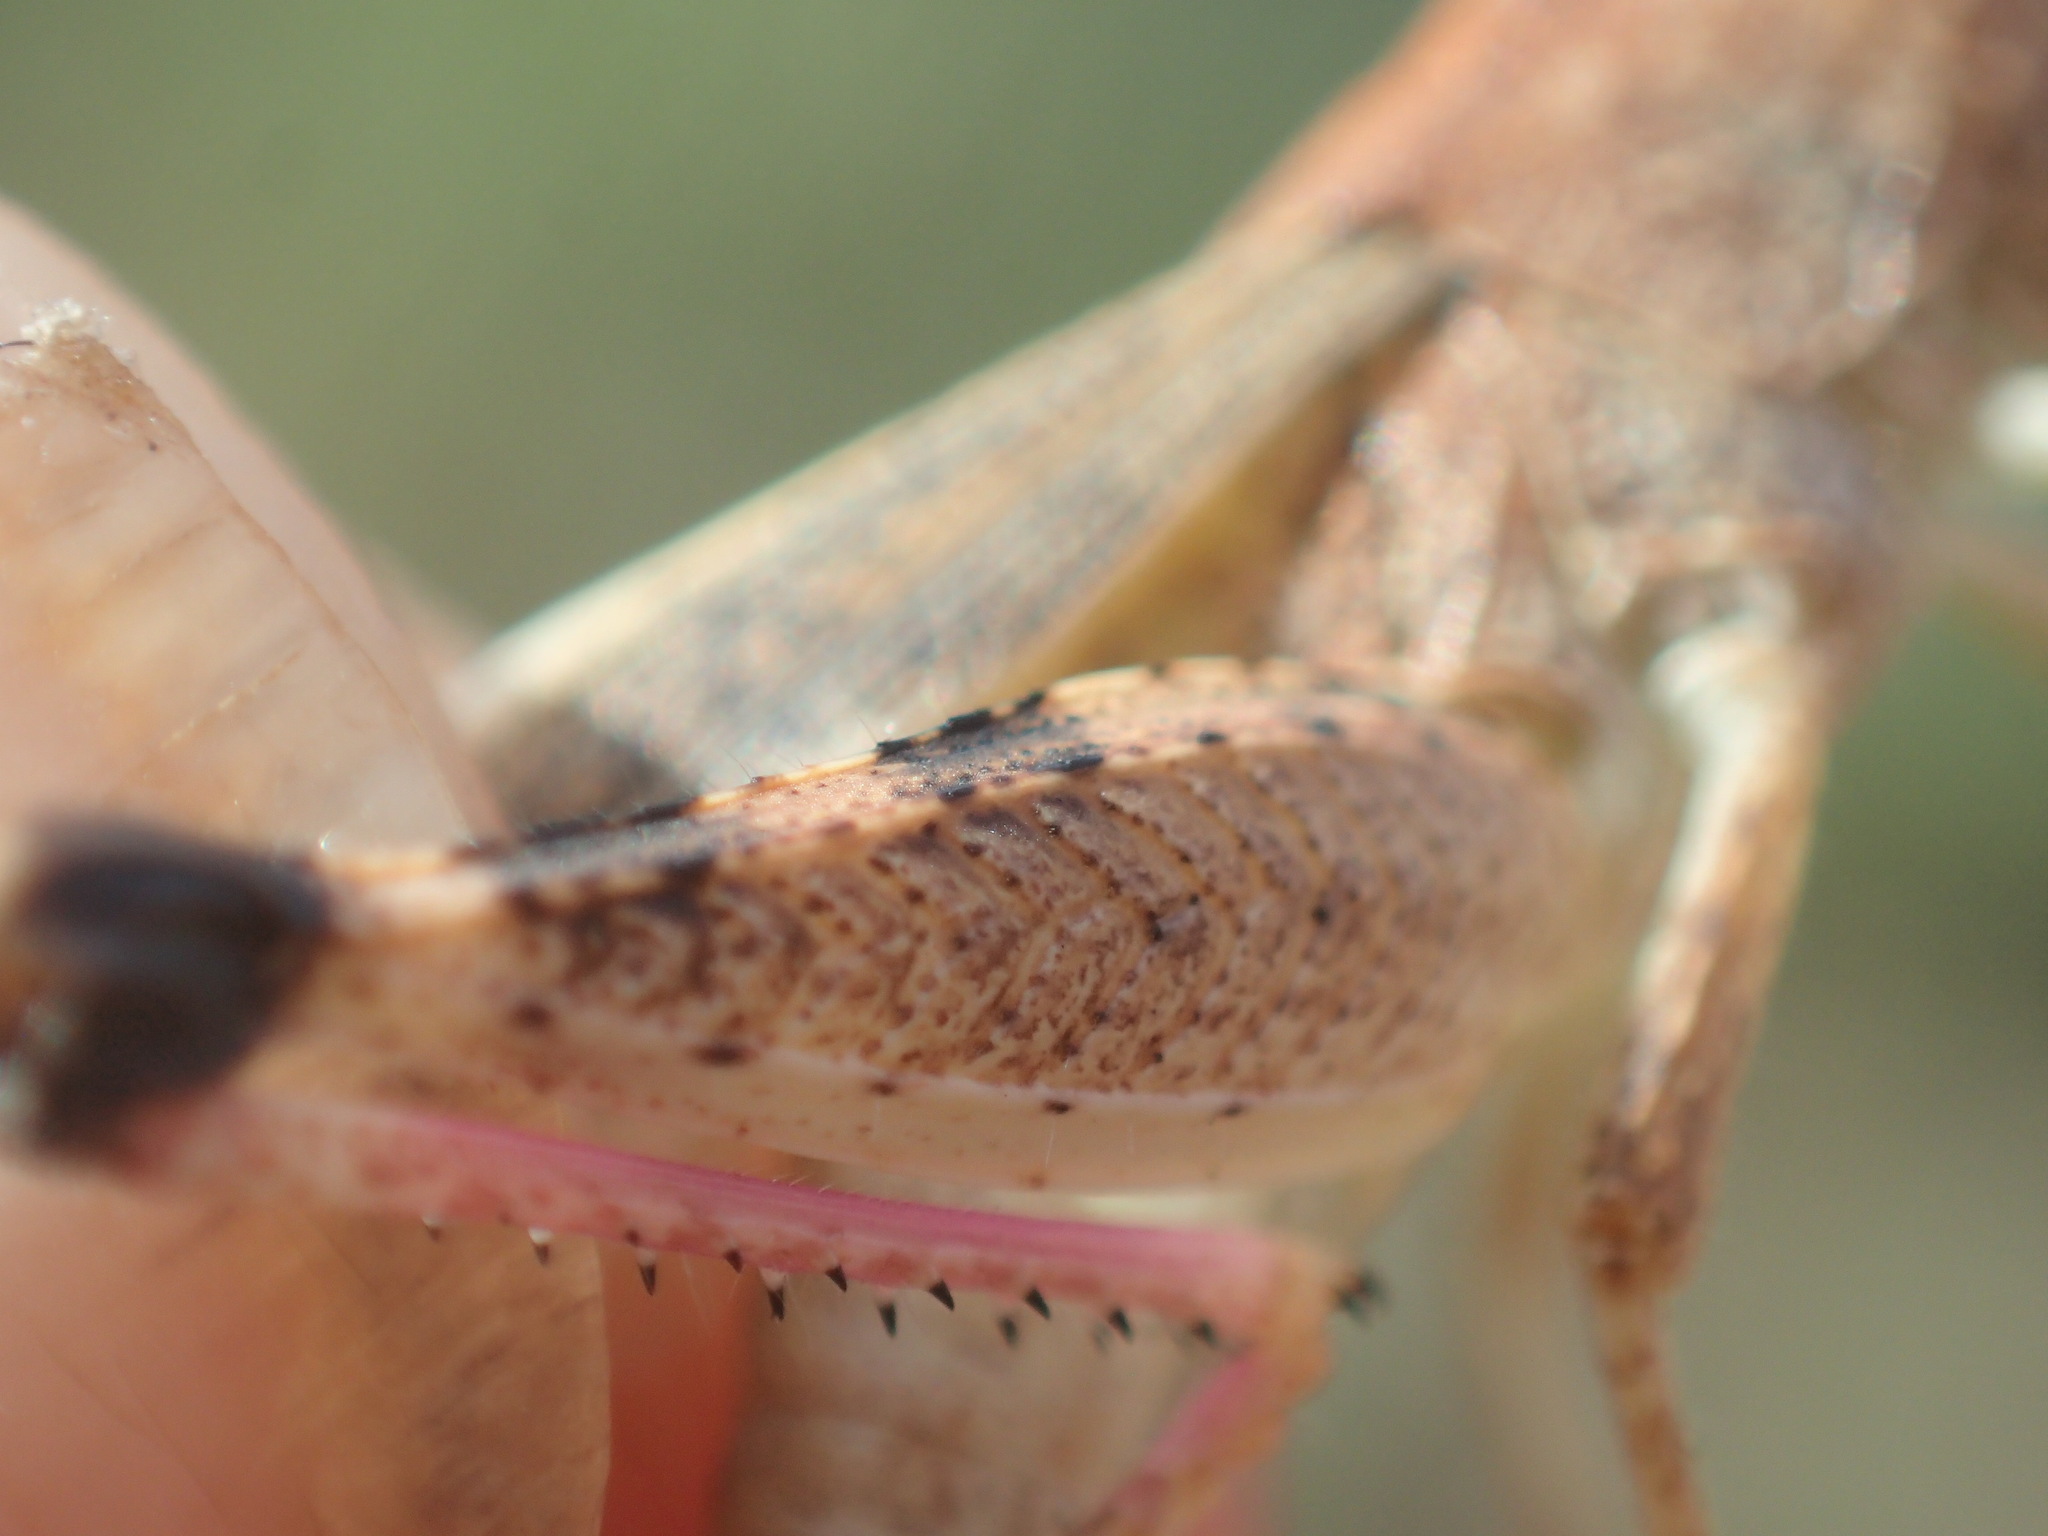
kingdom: Animalia
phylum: Arthropoda
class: Insecta
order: Orthoptera
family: Acrididae
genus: Desertaria
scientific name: Desertaria fasciata
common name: Striped ungee-gungee
